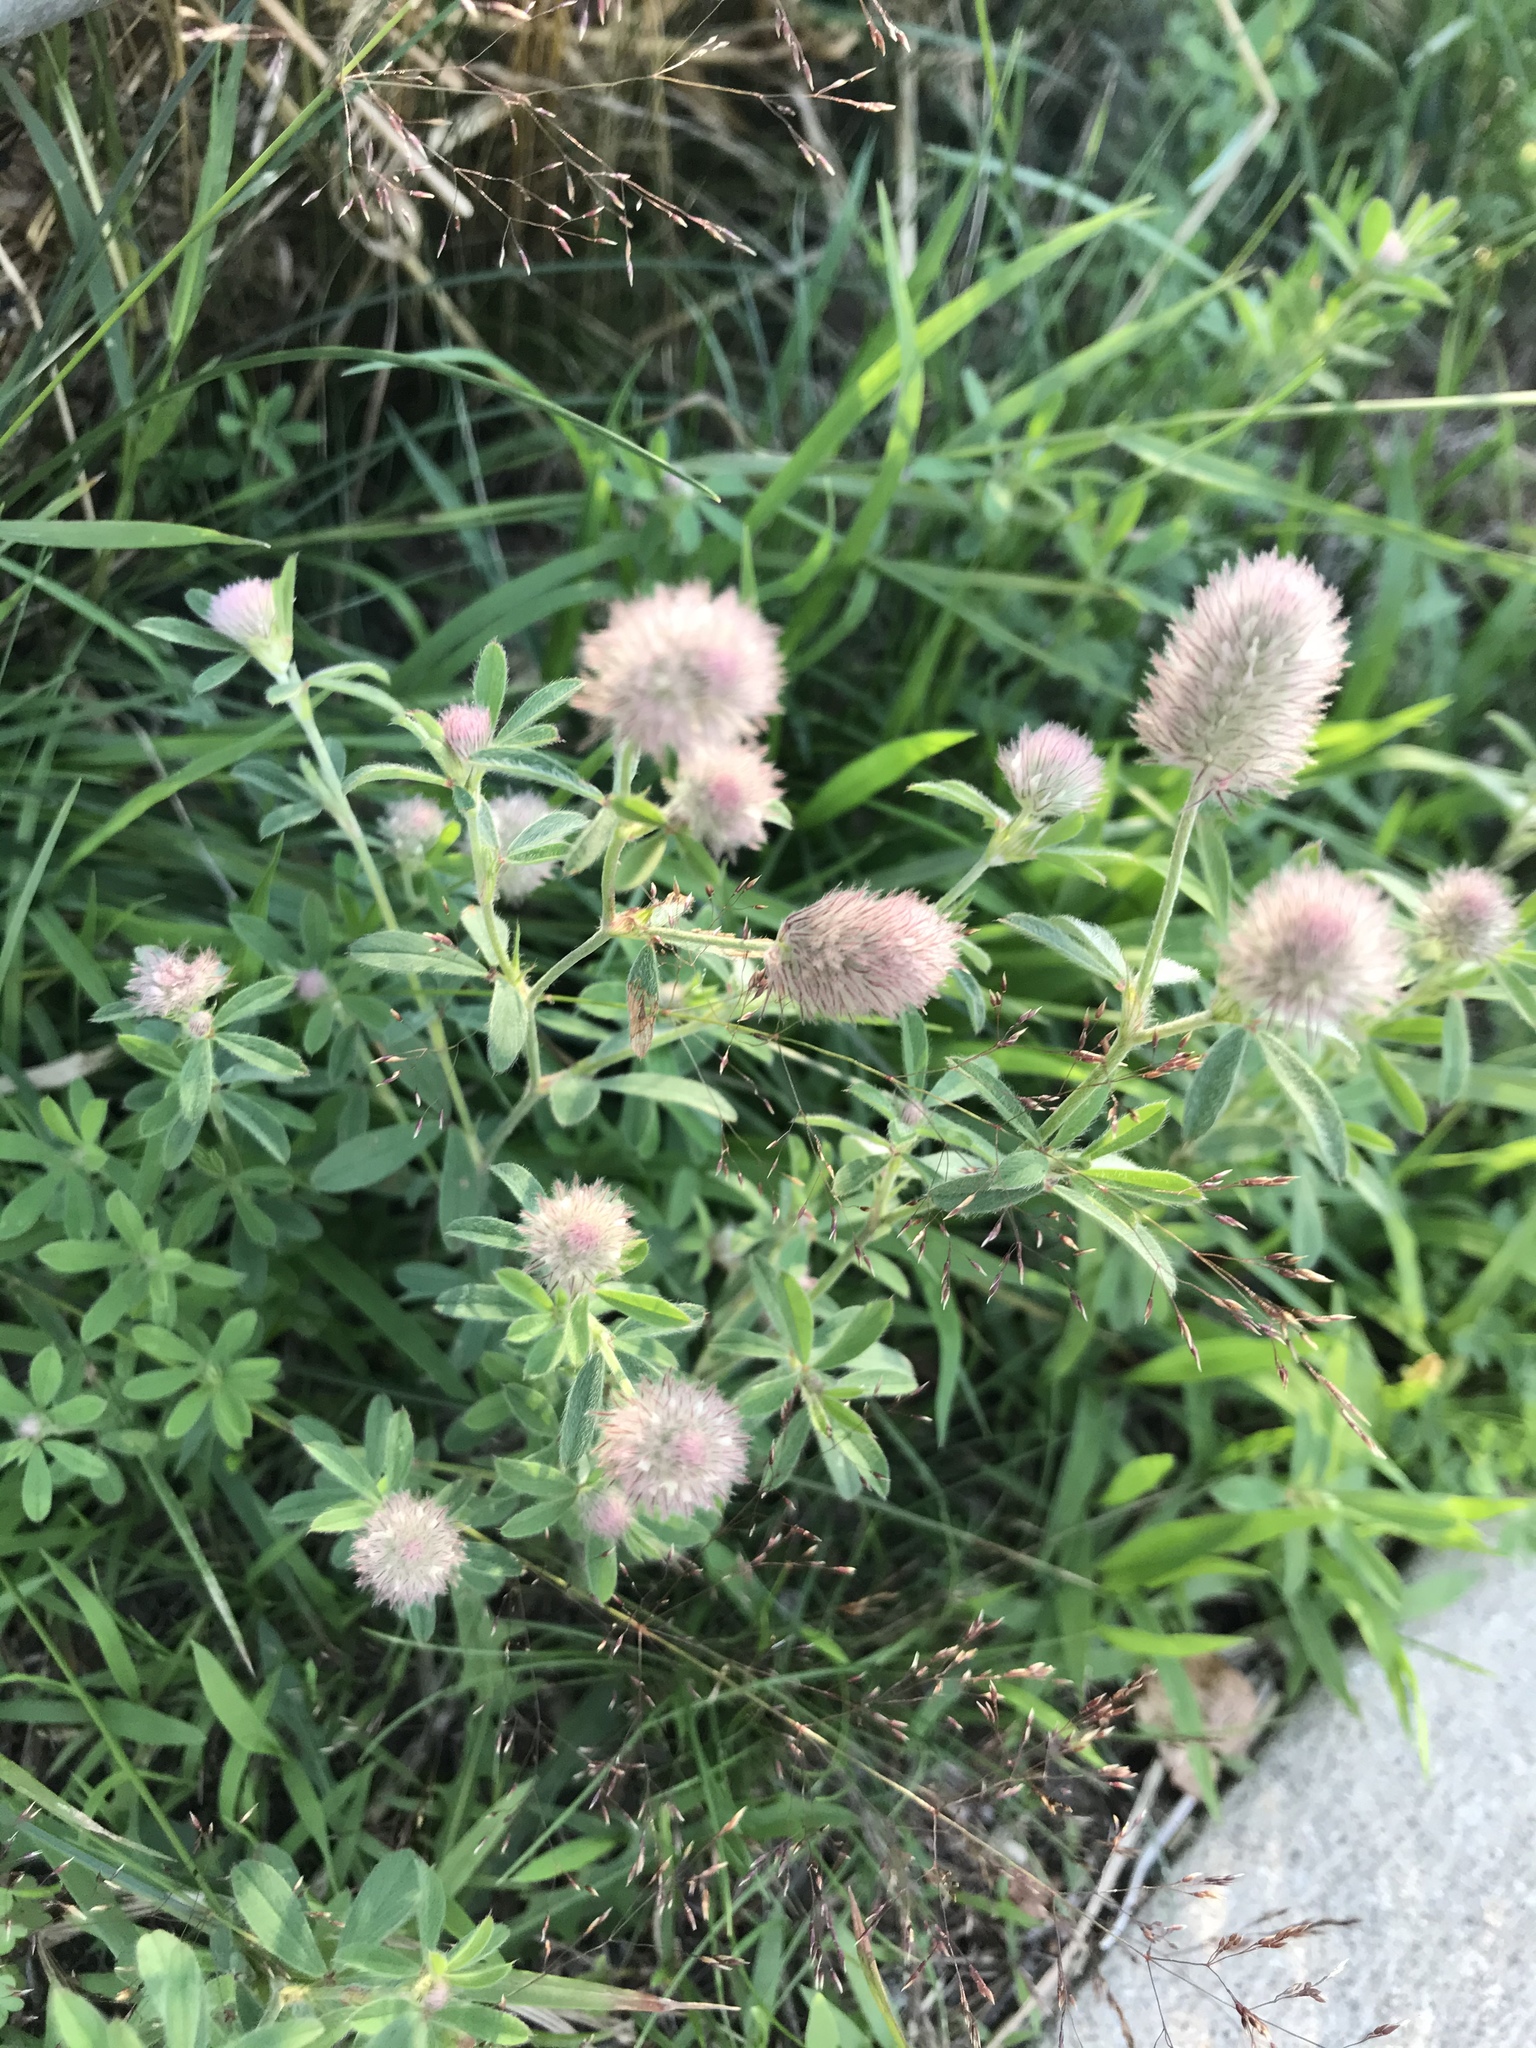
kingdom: Plantae
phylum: Tracheophyta
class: Magnoliopsida
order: Fabales
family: Fabaceae
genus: Trifolium
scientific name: Trifolium arvense
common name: Hare's-foot clover
